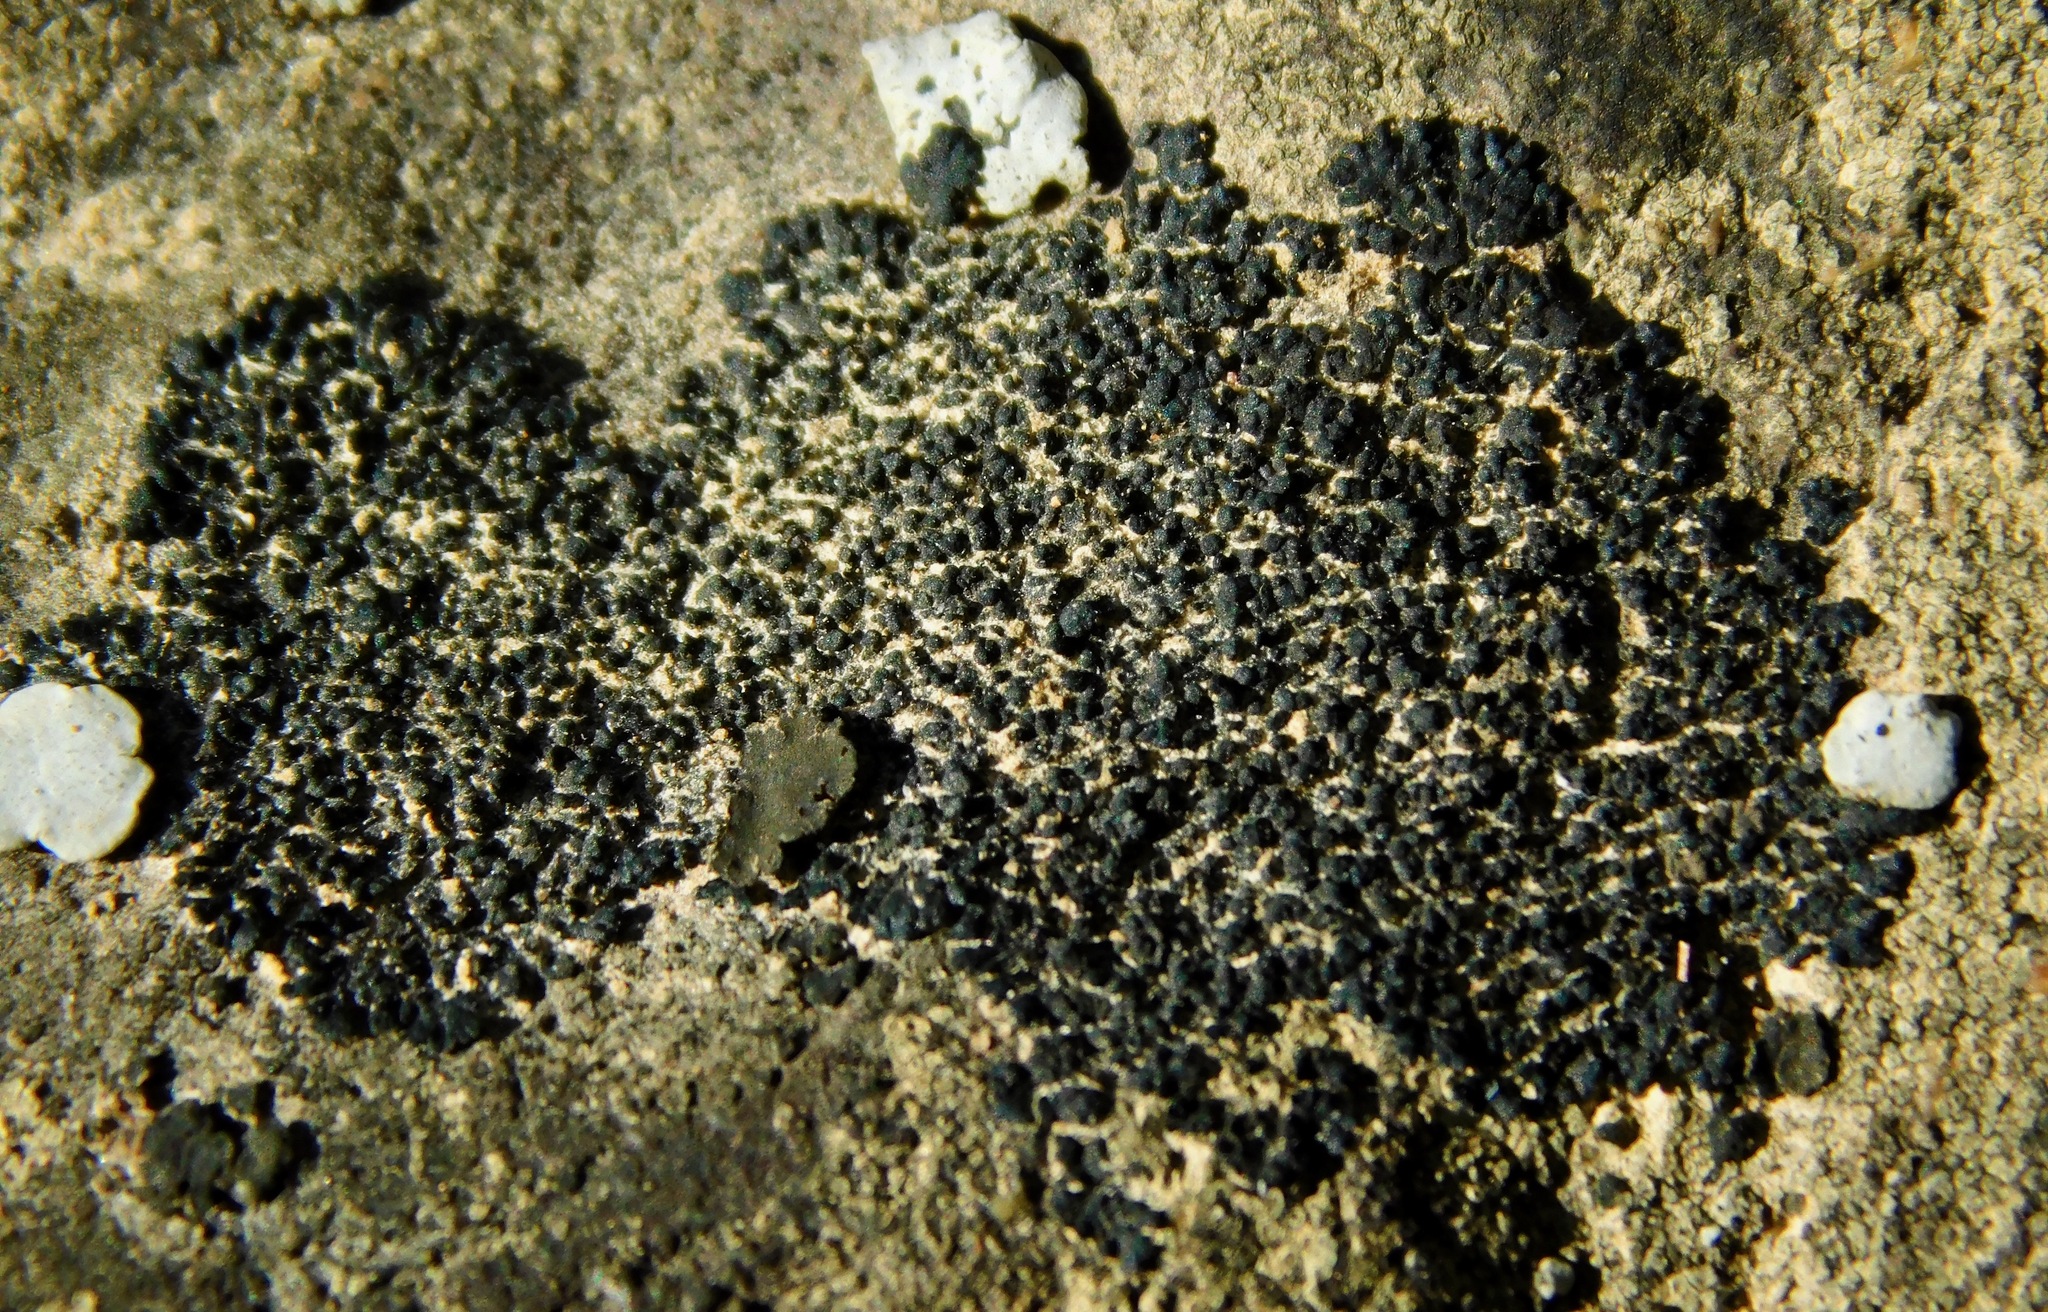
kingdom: Fungi
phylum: Ascomycota
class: Lichinomycetes
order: Lichinales
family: Peltulaceae
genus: Peltula
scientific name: Peltula placodizans
